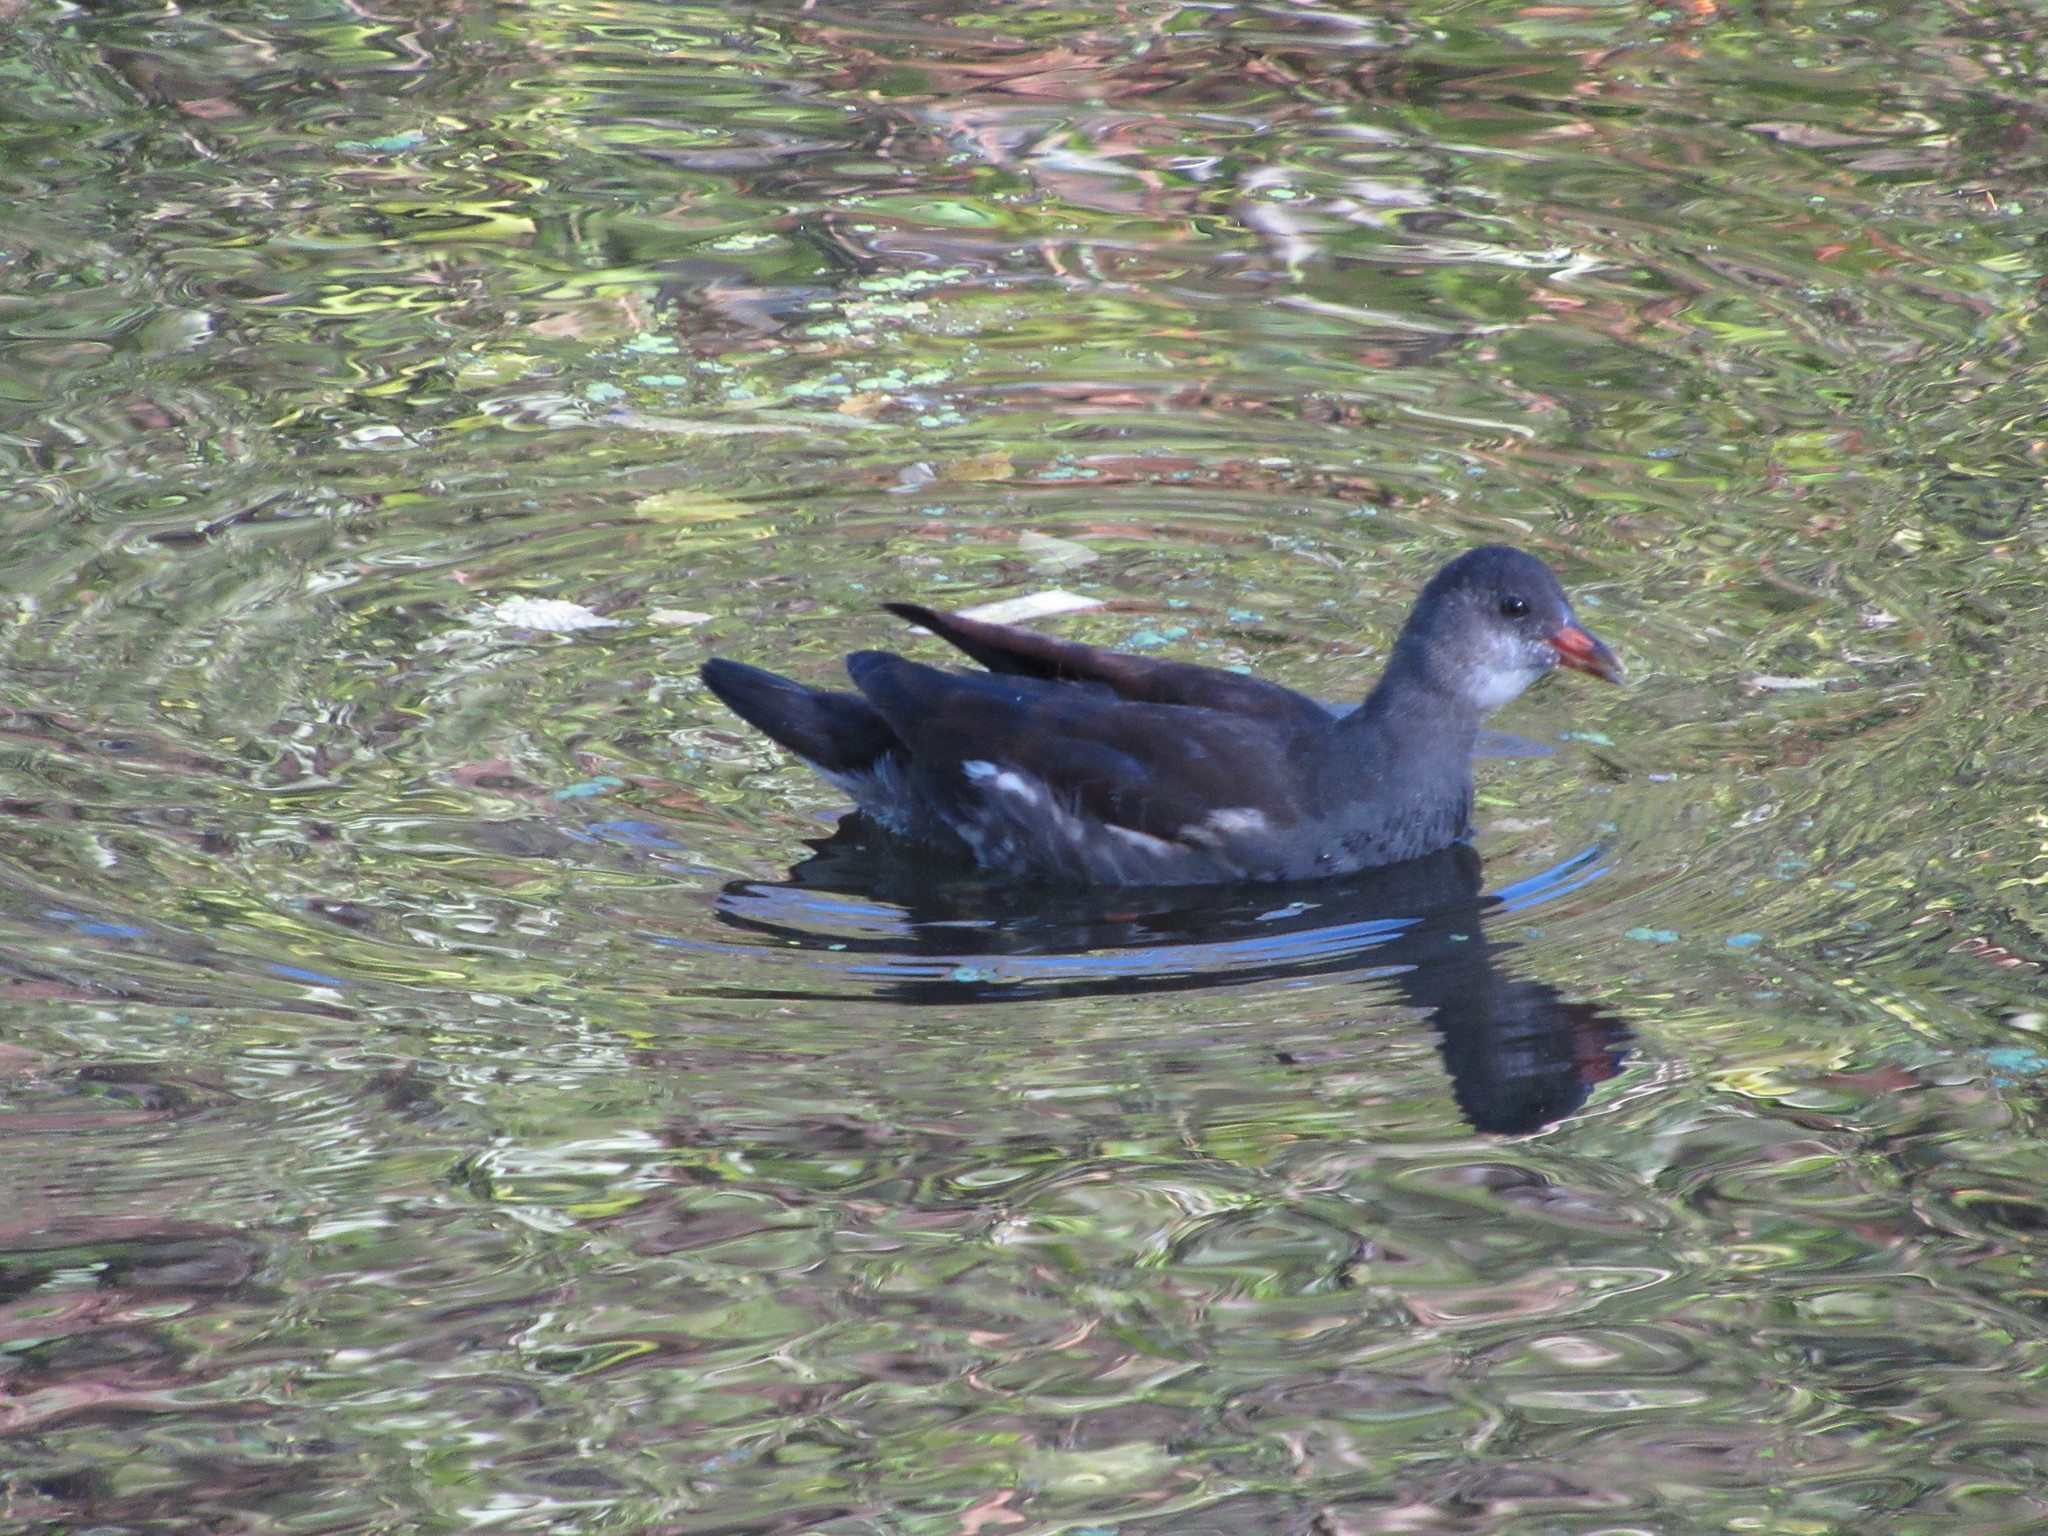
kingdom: Animalia
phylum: Chordata
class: Aves
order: Gruiformes
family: Rallidae
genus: Gallinula
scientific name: Gallinula chloropus
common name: Common moorhen
